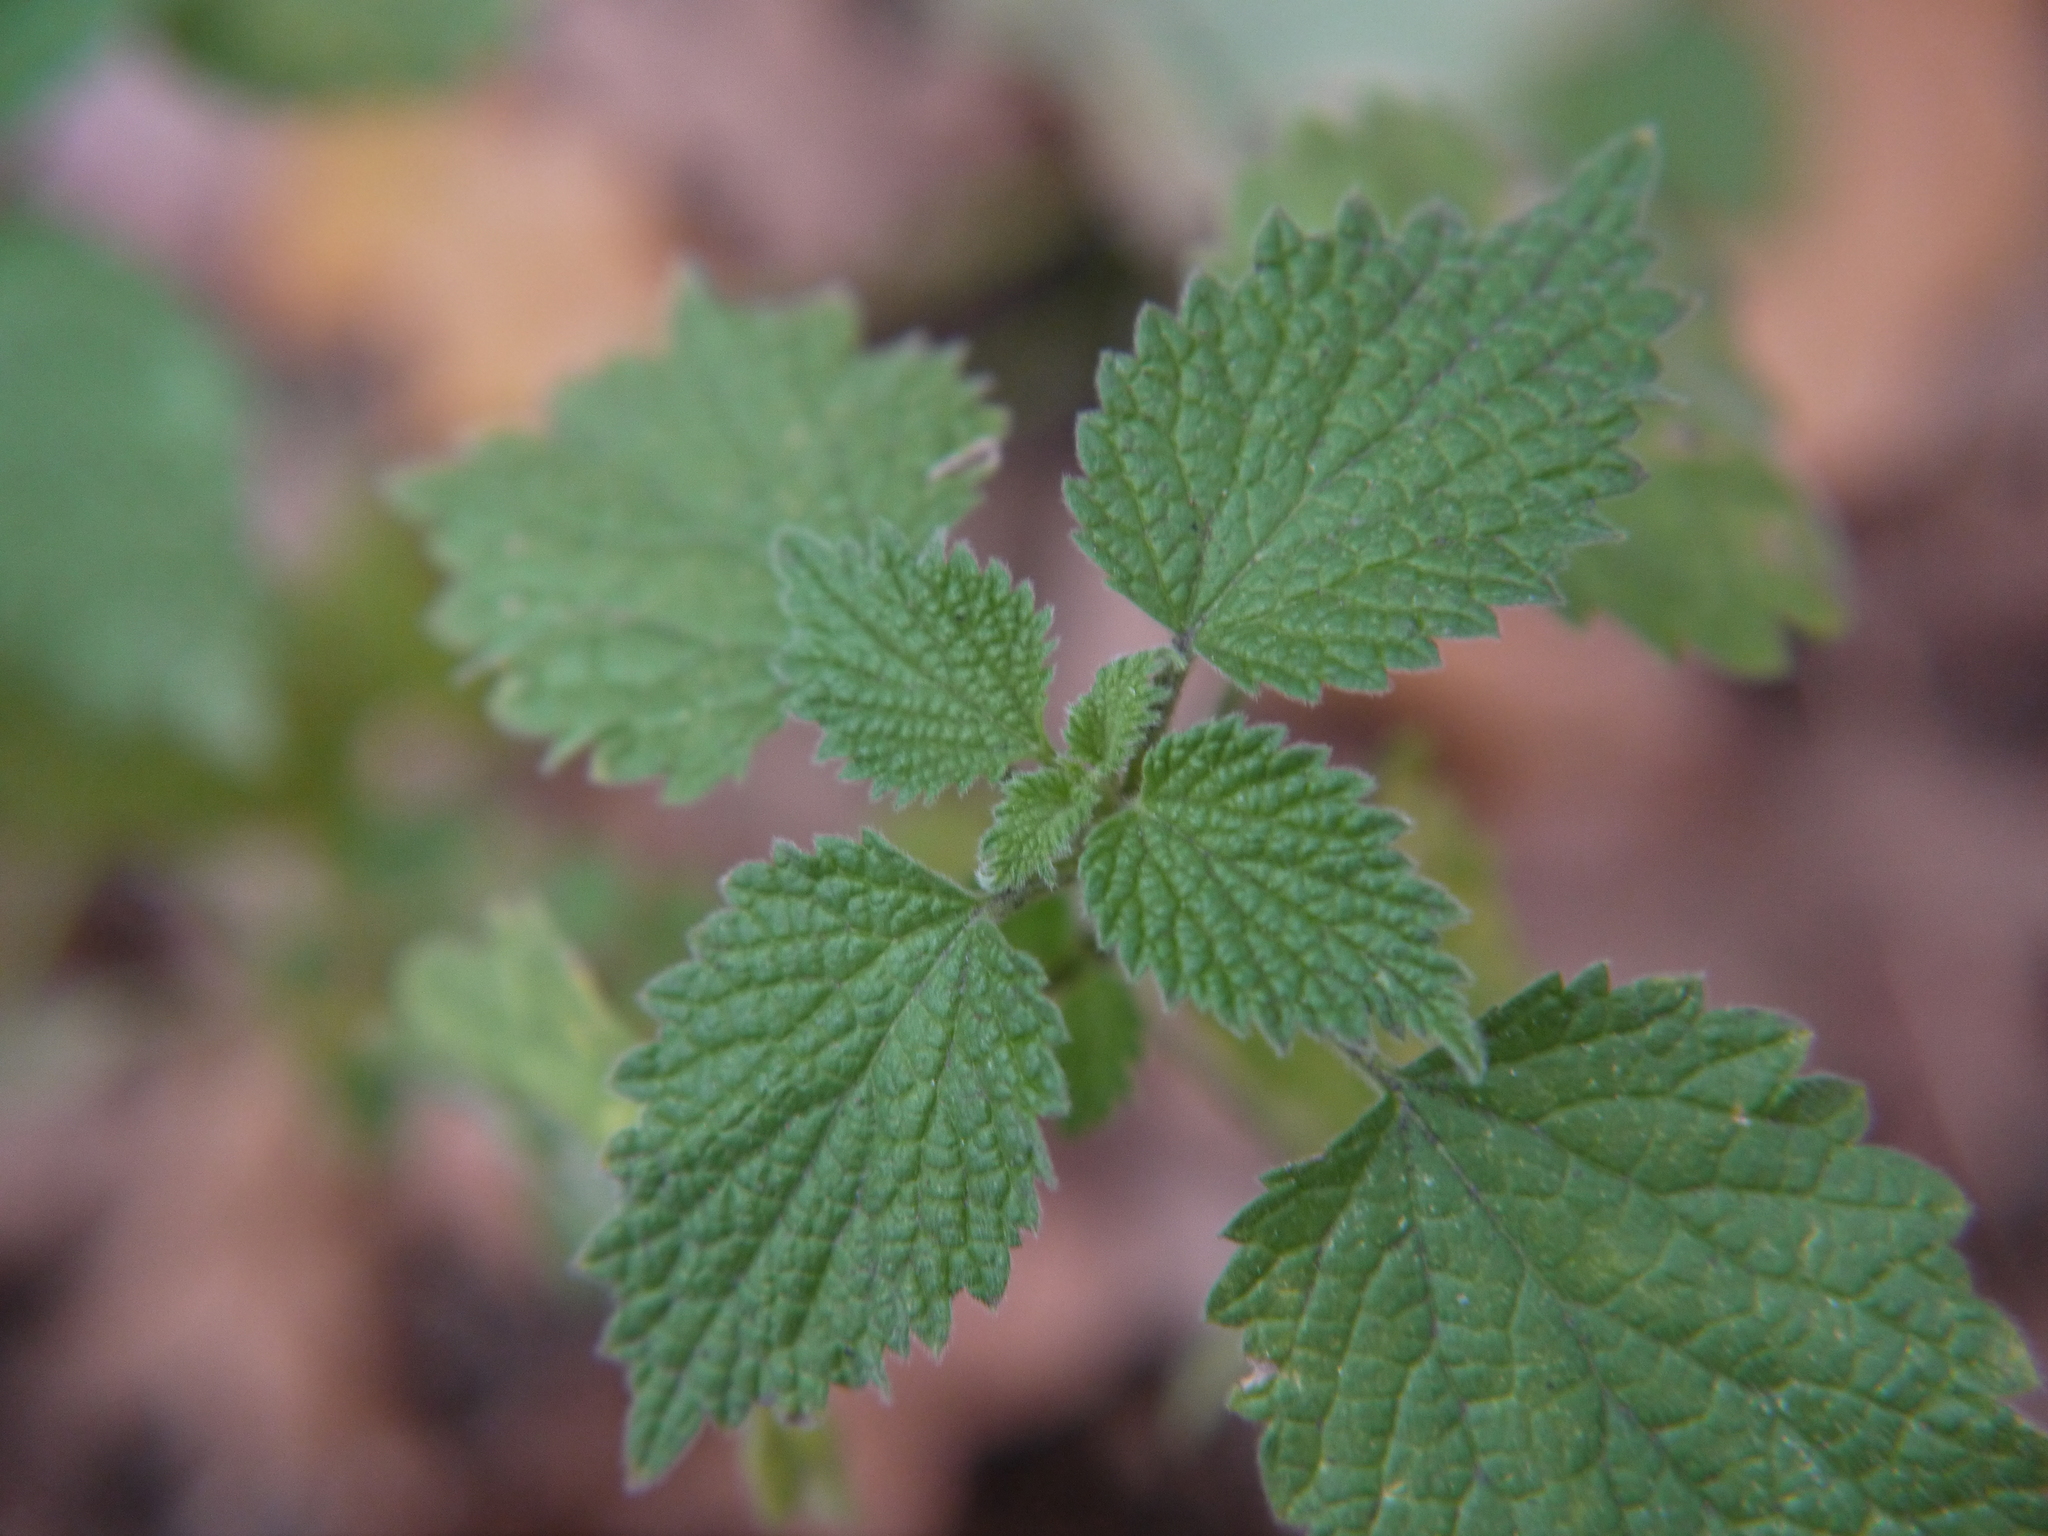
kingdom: Plantae
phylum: Tracheophyta
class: Magnoliopsida
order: Rosales
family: Urticaceae
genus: Urtica
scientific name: Urtica dioica
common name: Common nettle
